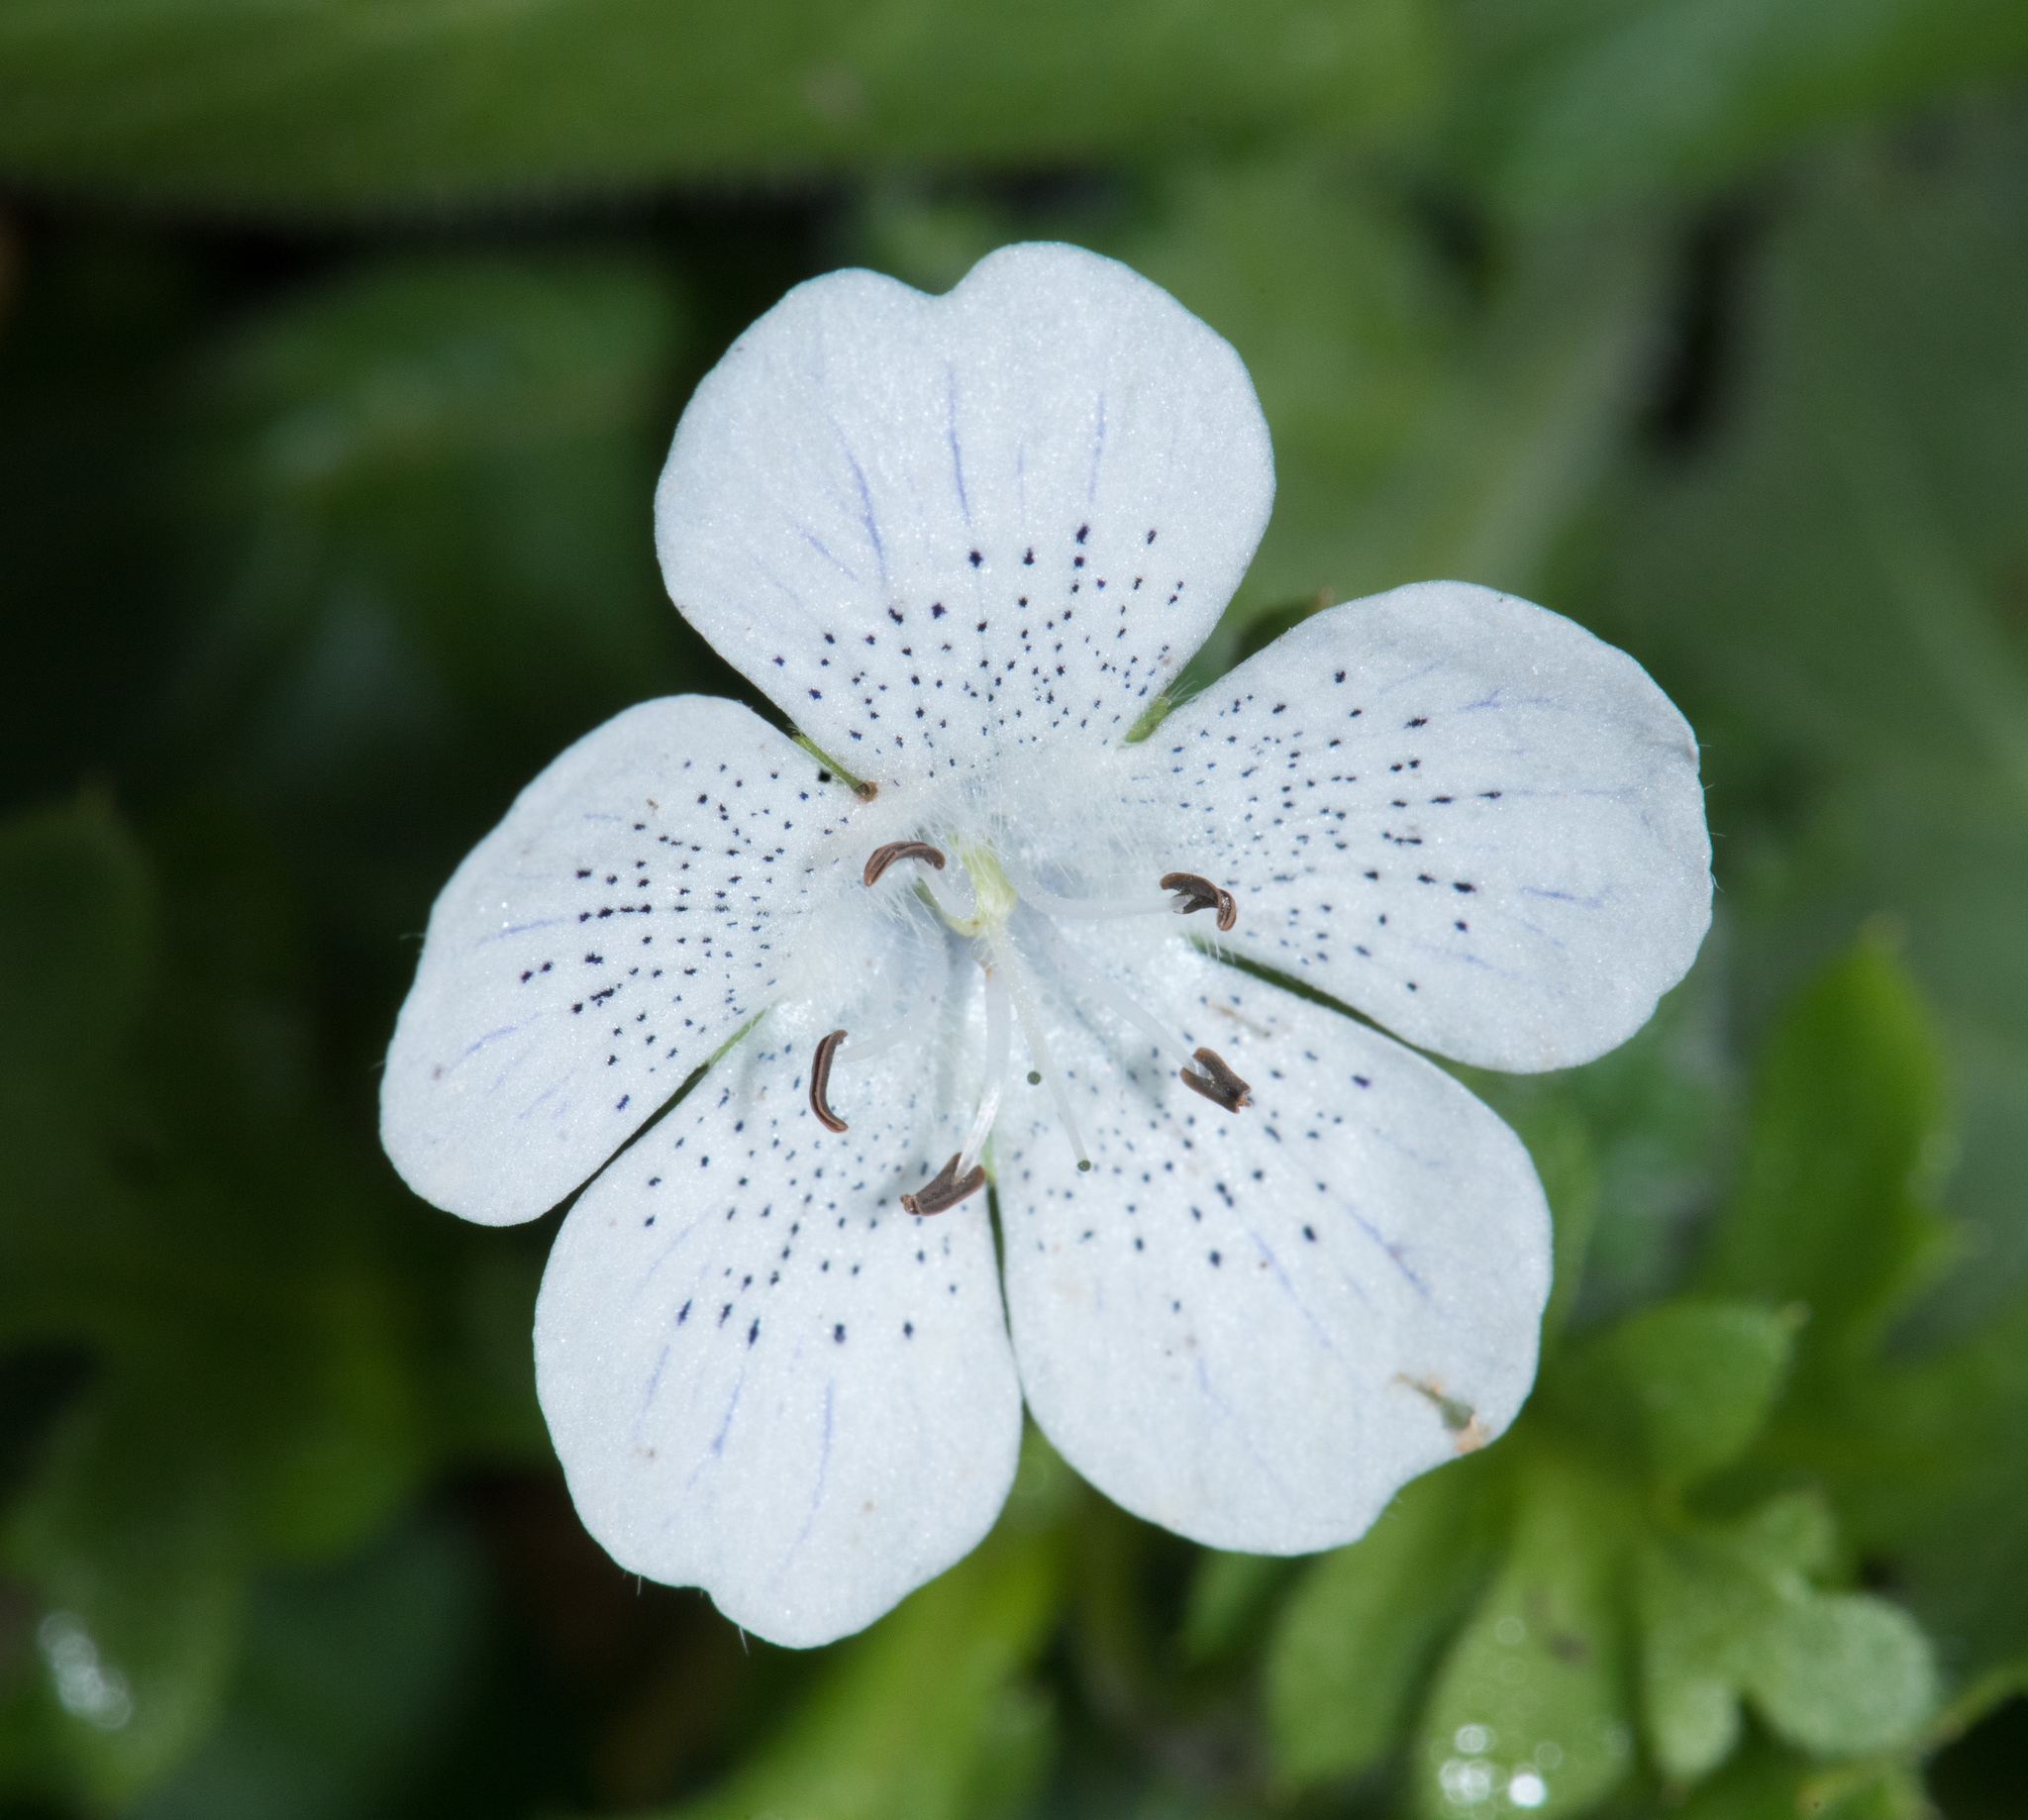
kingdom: Plantae
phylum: Tracheophyta
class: Magnoliopsida
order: Boraginales
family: Hydrophyllaceae
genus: Nemophila
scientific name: Nemophila menziesii
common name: Baby's-blue-eyes
